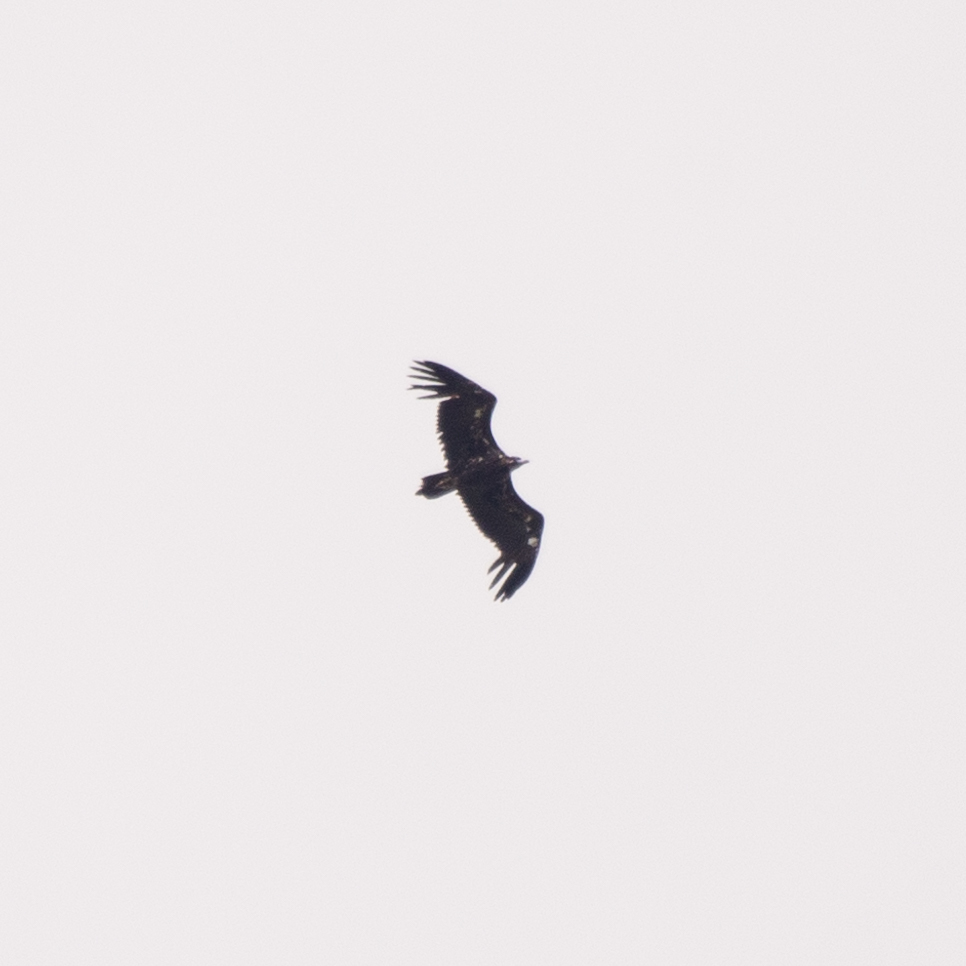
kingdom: Animalia
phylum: Chordata
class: Aves
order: Accipitriformes
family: Accipitridae
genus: Aegypius
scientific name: Aegypius monachus
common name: Cinereous vulture
